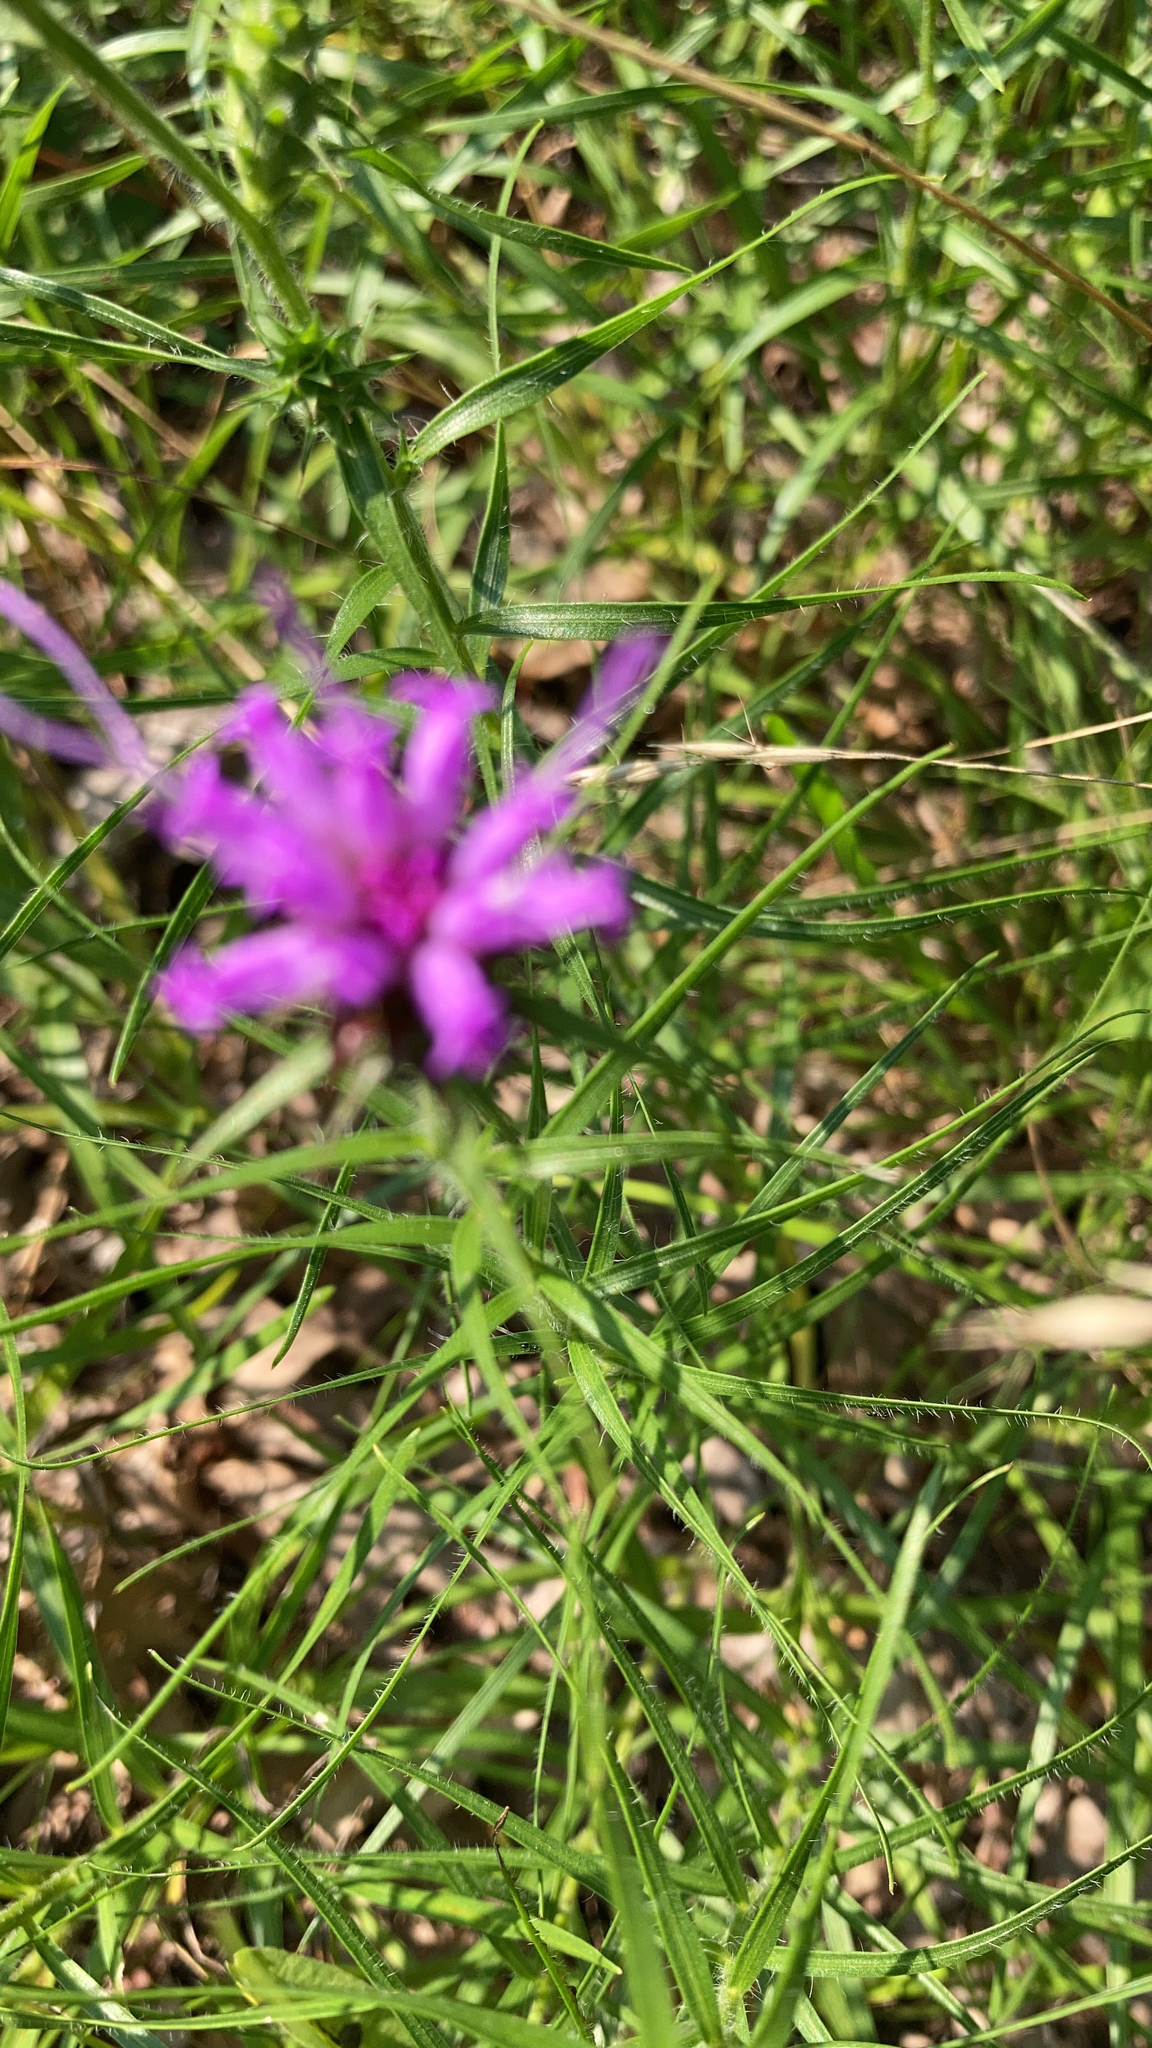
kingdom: Plantae
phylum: Tracheophyta
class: Magnoliopsida
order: Asterales
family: Asteraceae
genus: Liatris
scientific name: Liatris squarrosa
